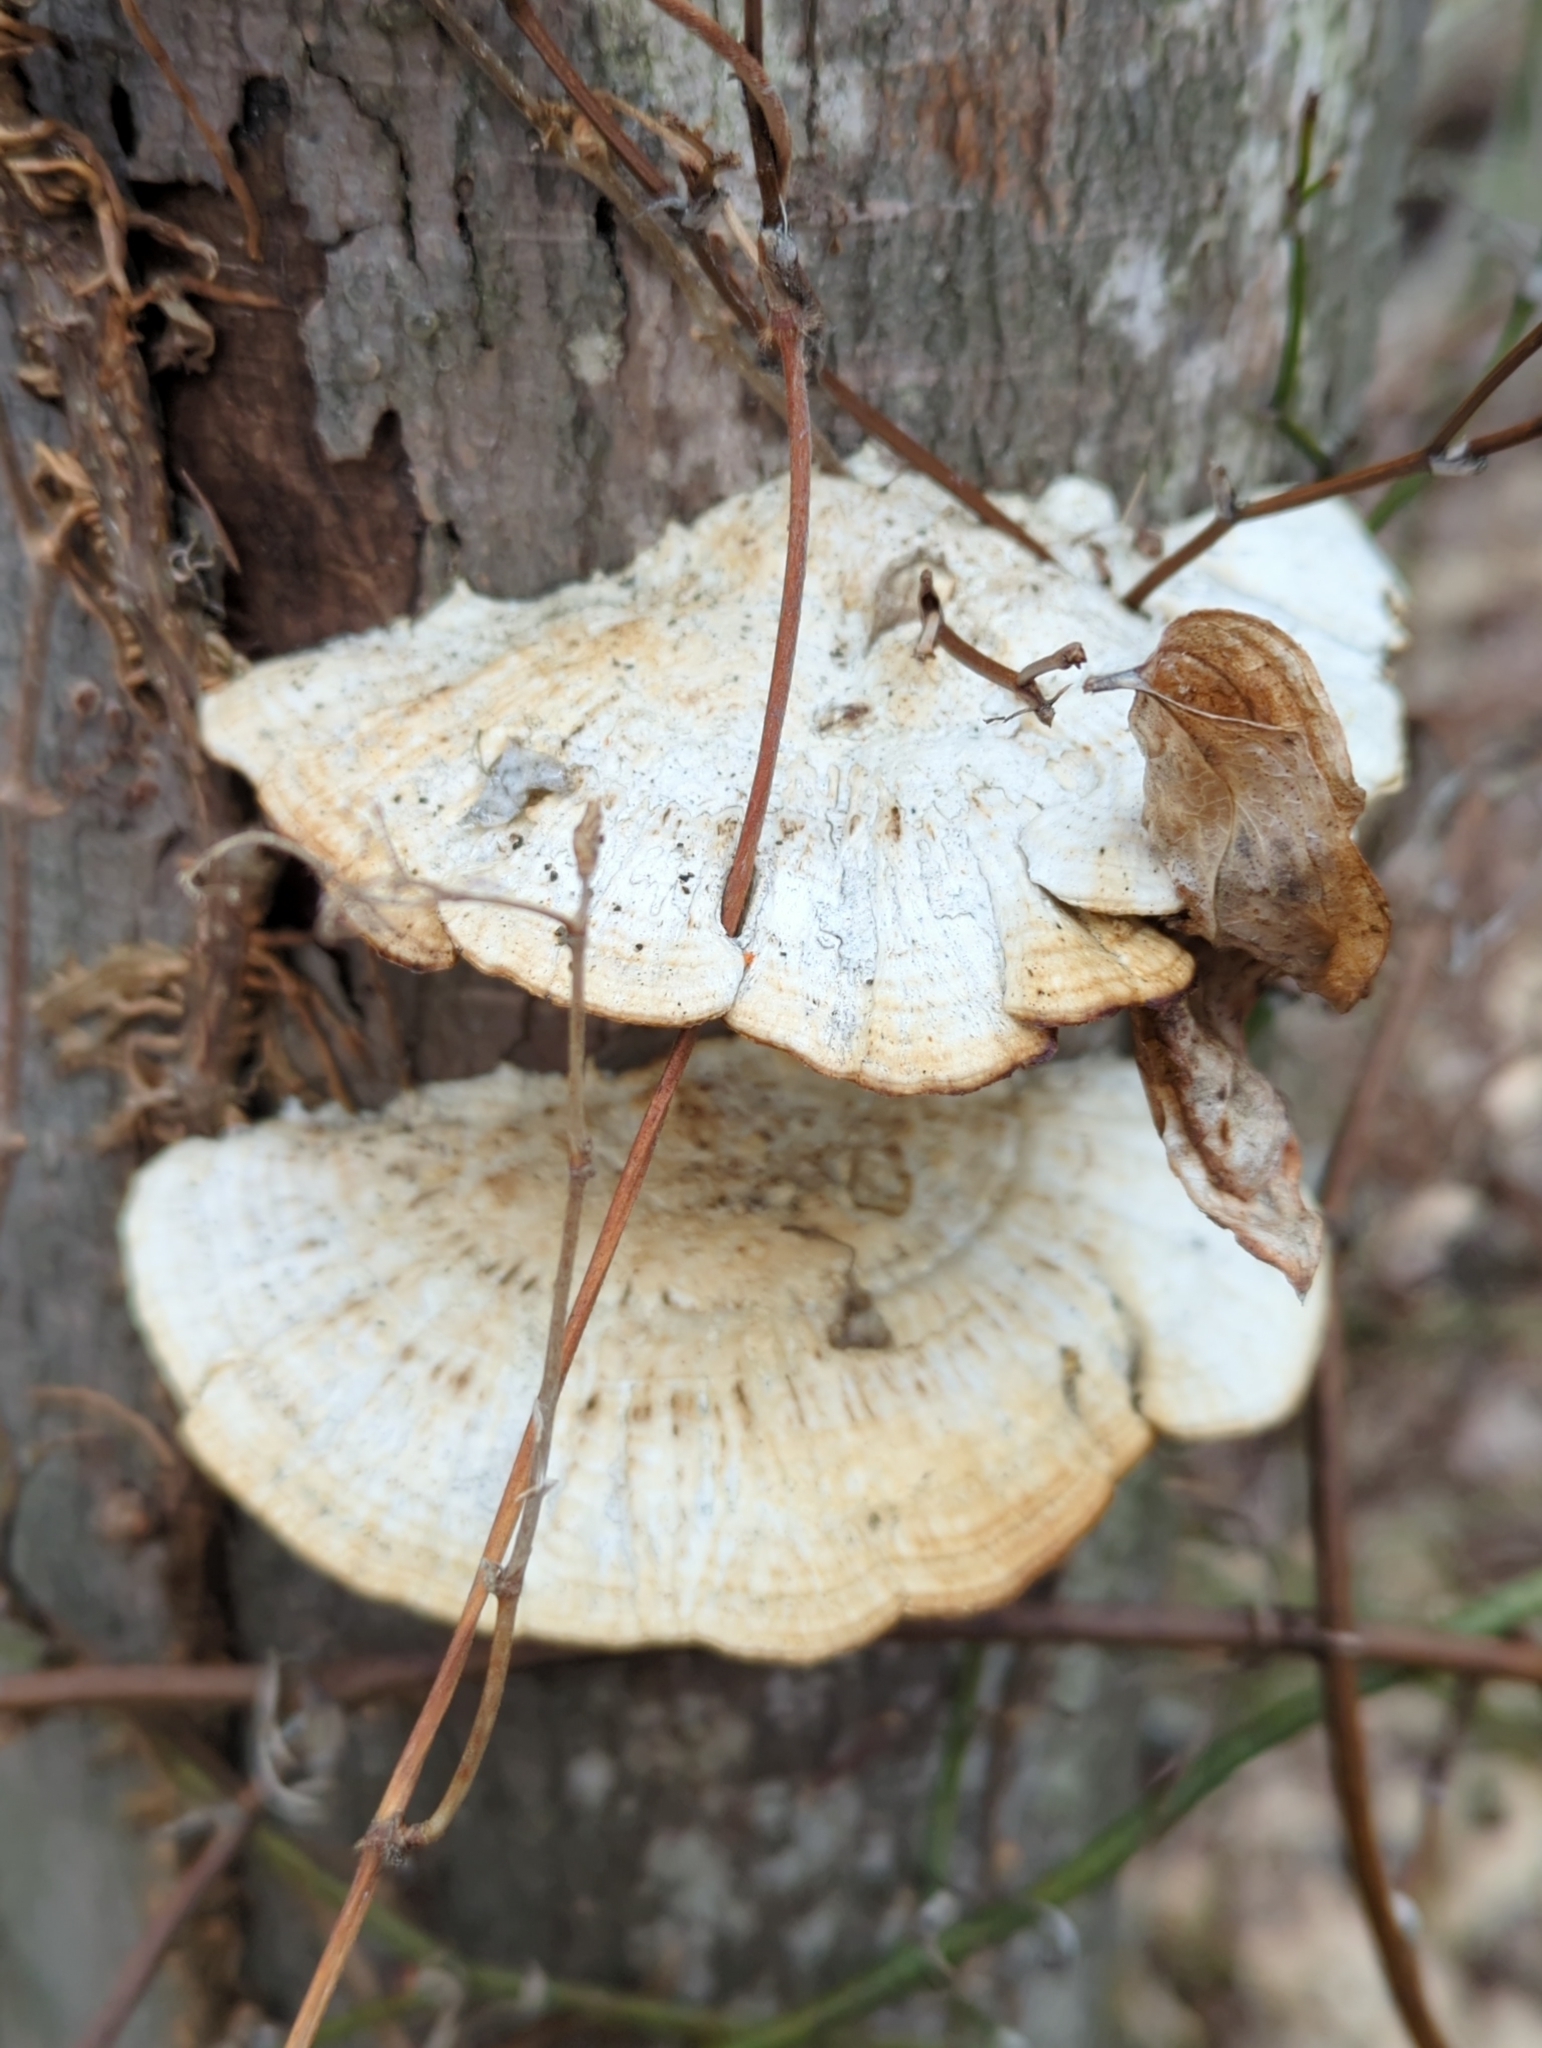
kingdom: Fungi
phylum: Basidiomycota
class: Agaricomycetes
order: Polyporales
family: Polyporaceae
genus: Daedaleopsis
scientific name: Daedaleopsis confragosa
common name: Blushing bracket
